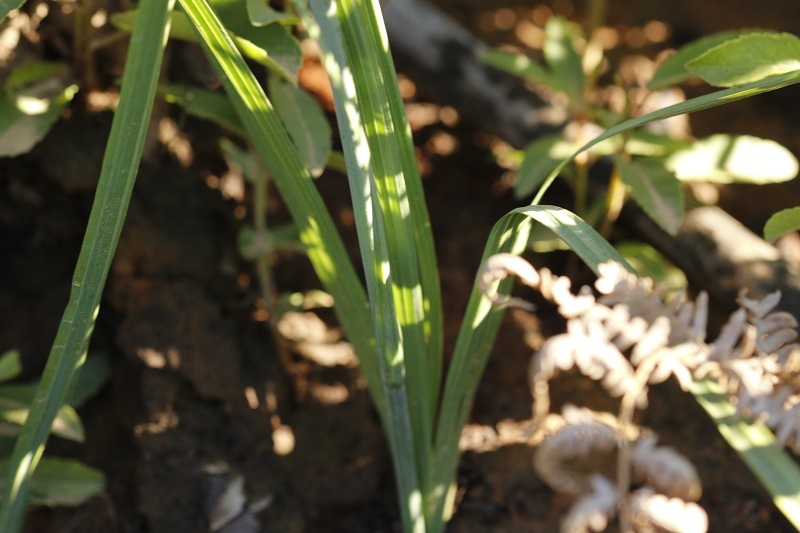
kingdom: Plantae
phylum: Tracheophyta
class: Liliopsida
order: Asparagales
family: Iridaceae
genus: Tritoniopsis
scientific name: Tritoniopsis caffra
